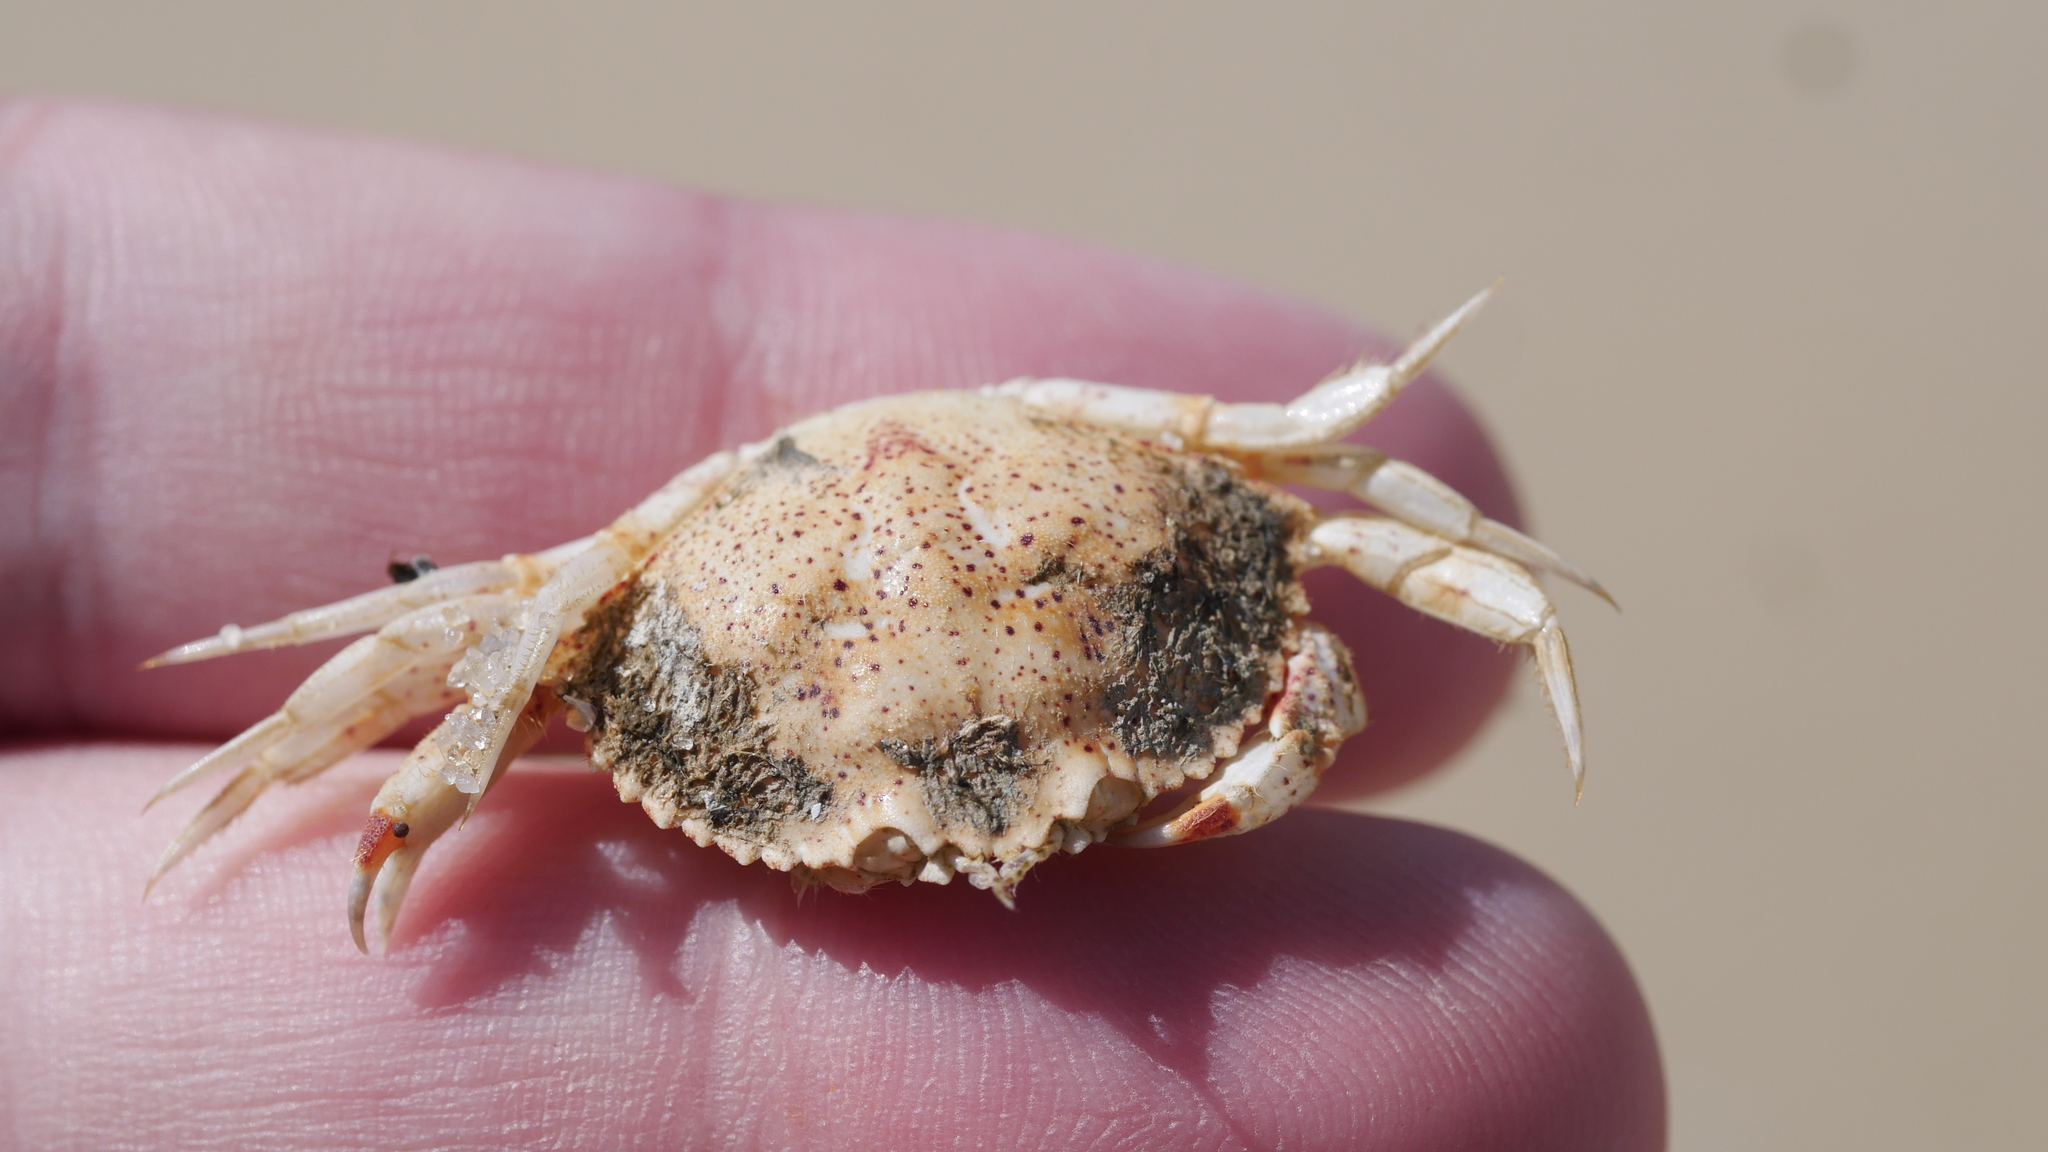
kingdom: Animalia
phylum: Arthropoda
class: Malacostraca
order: Decapoda
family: Cancridae
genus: Cancer
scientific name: Cancer irroratus
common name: Atlantic rock crab
